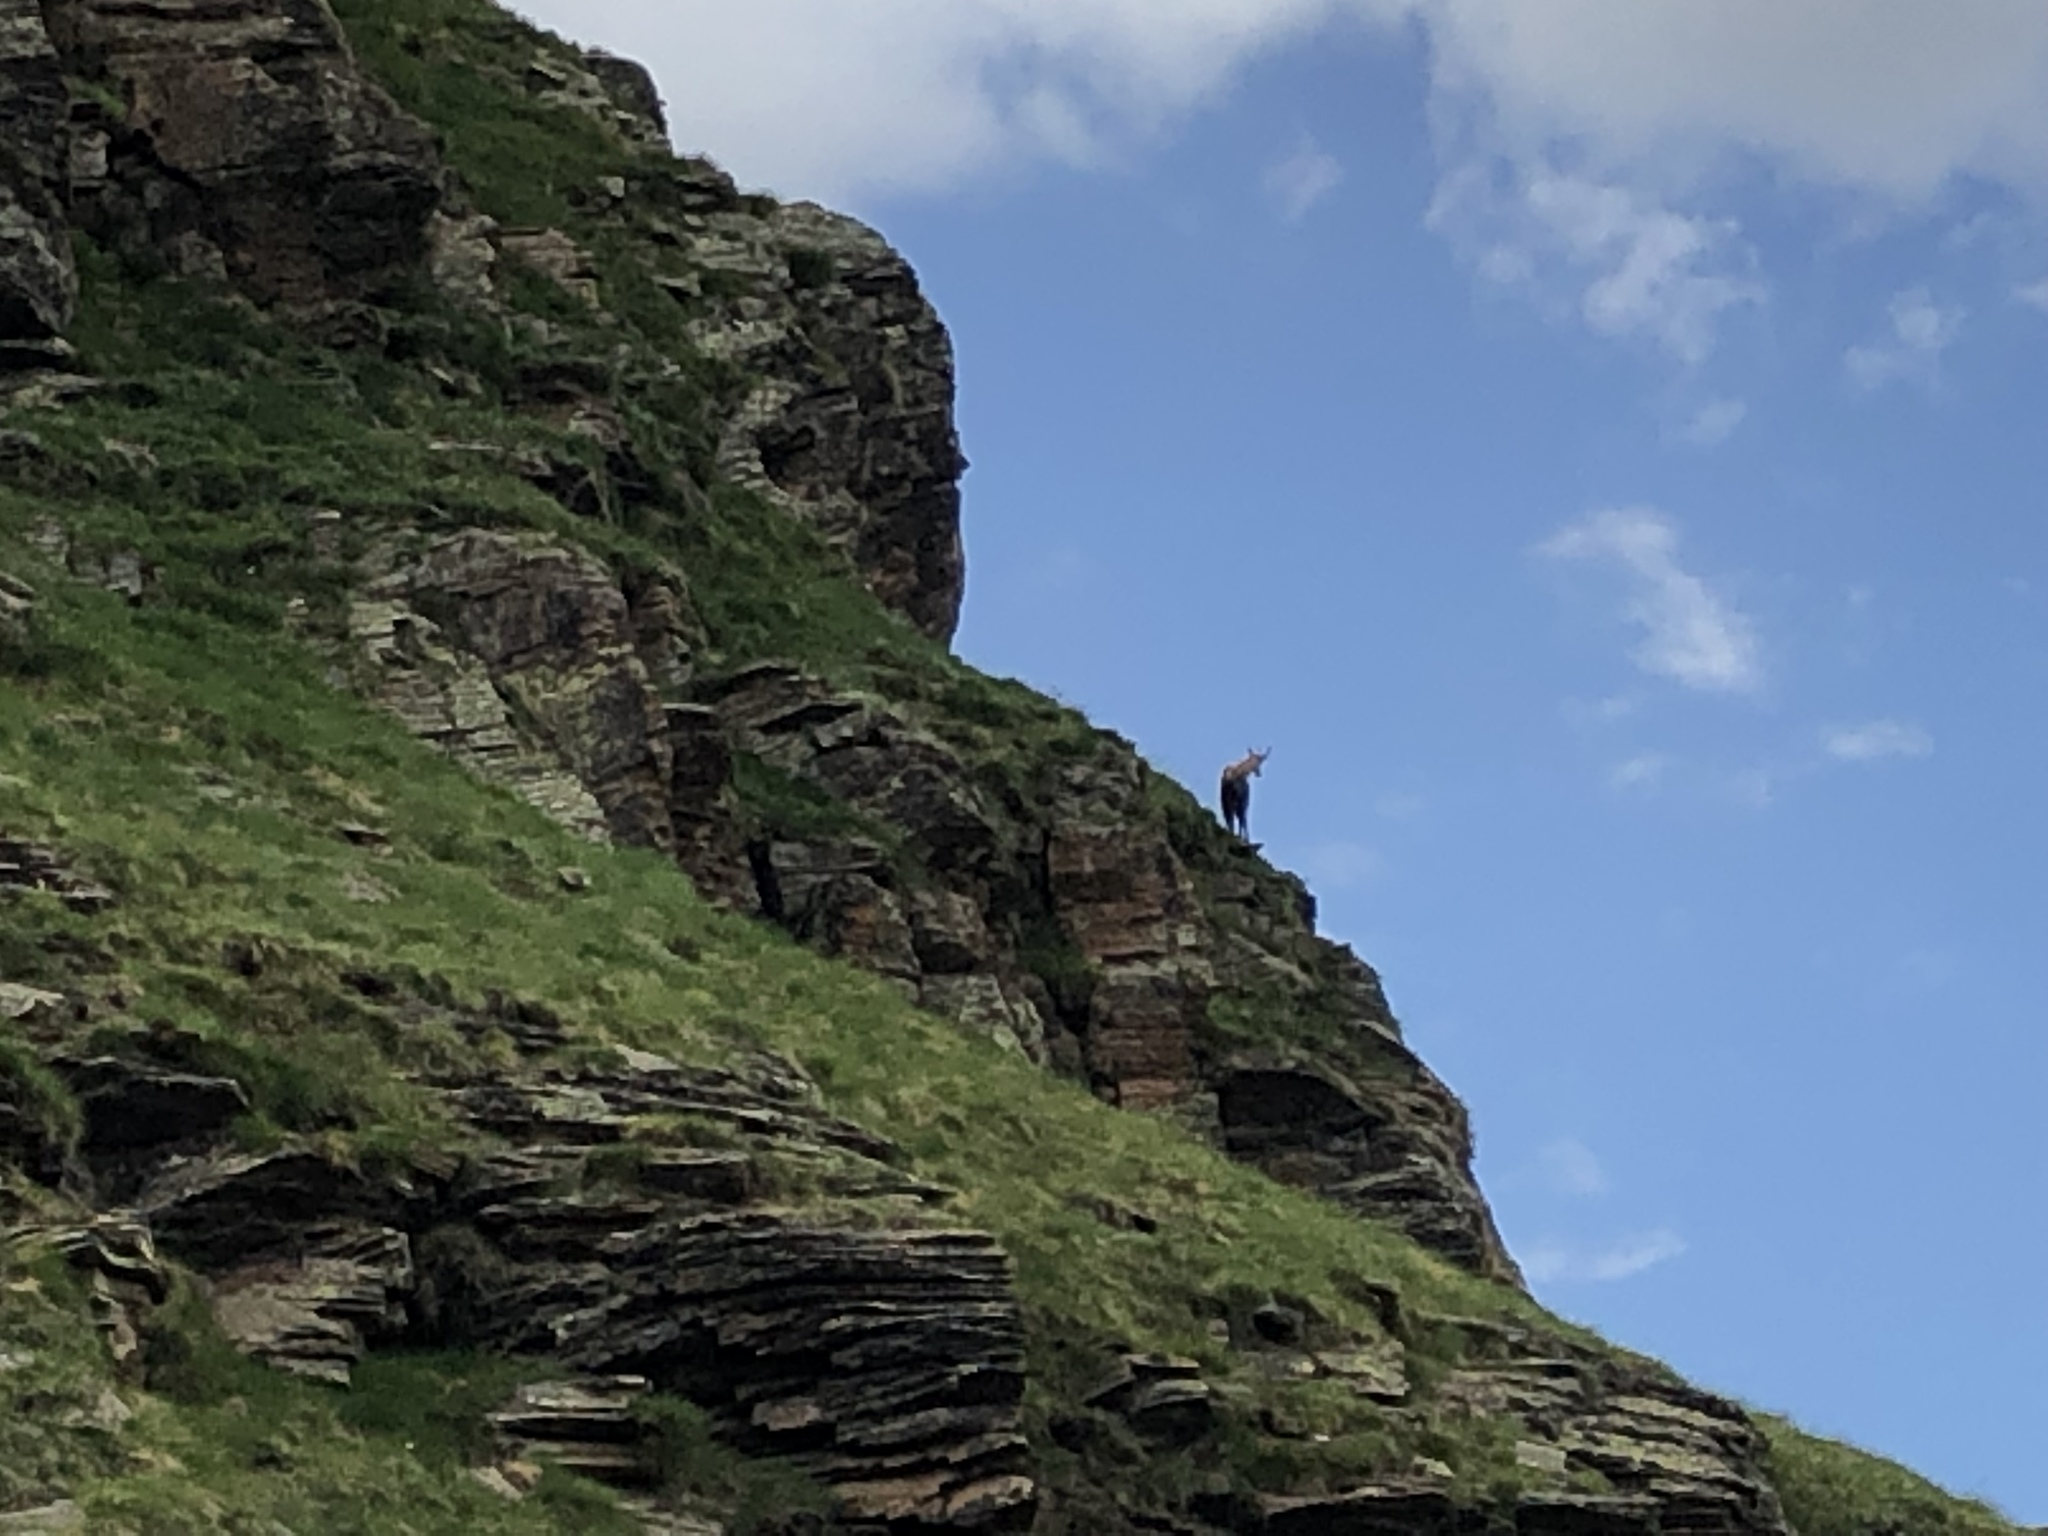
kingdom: Animalia
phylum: Chordata
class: Mammalia
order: Artiodactyla
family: Bovidae
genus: Rupicapra
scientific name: Rupicapra rupicapra
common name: Chamois
